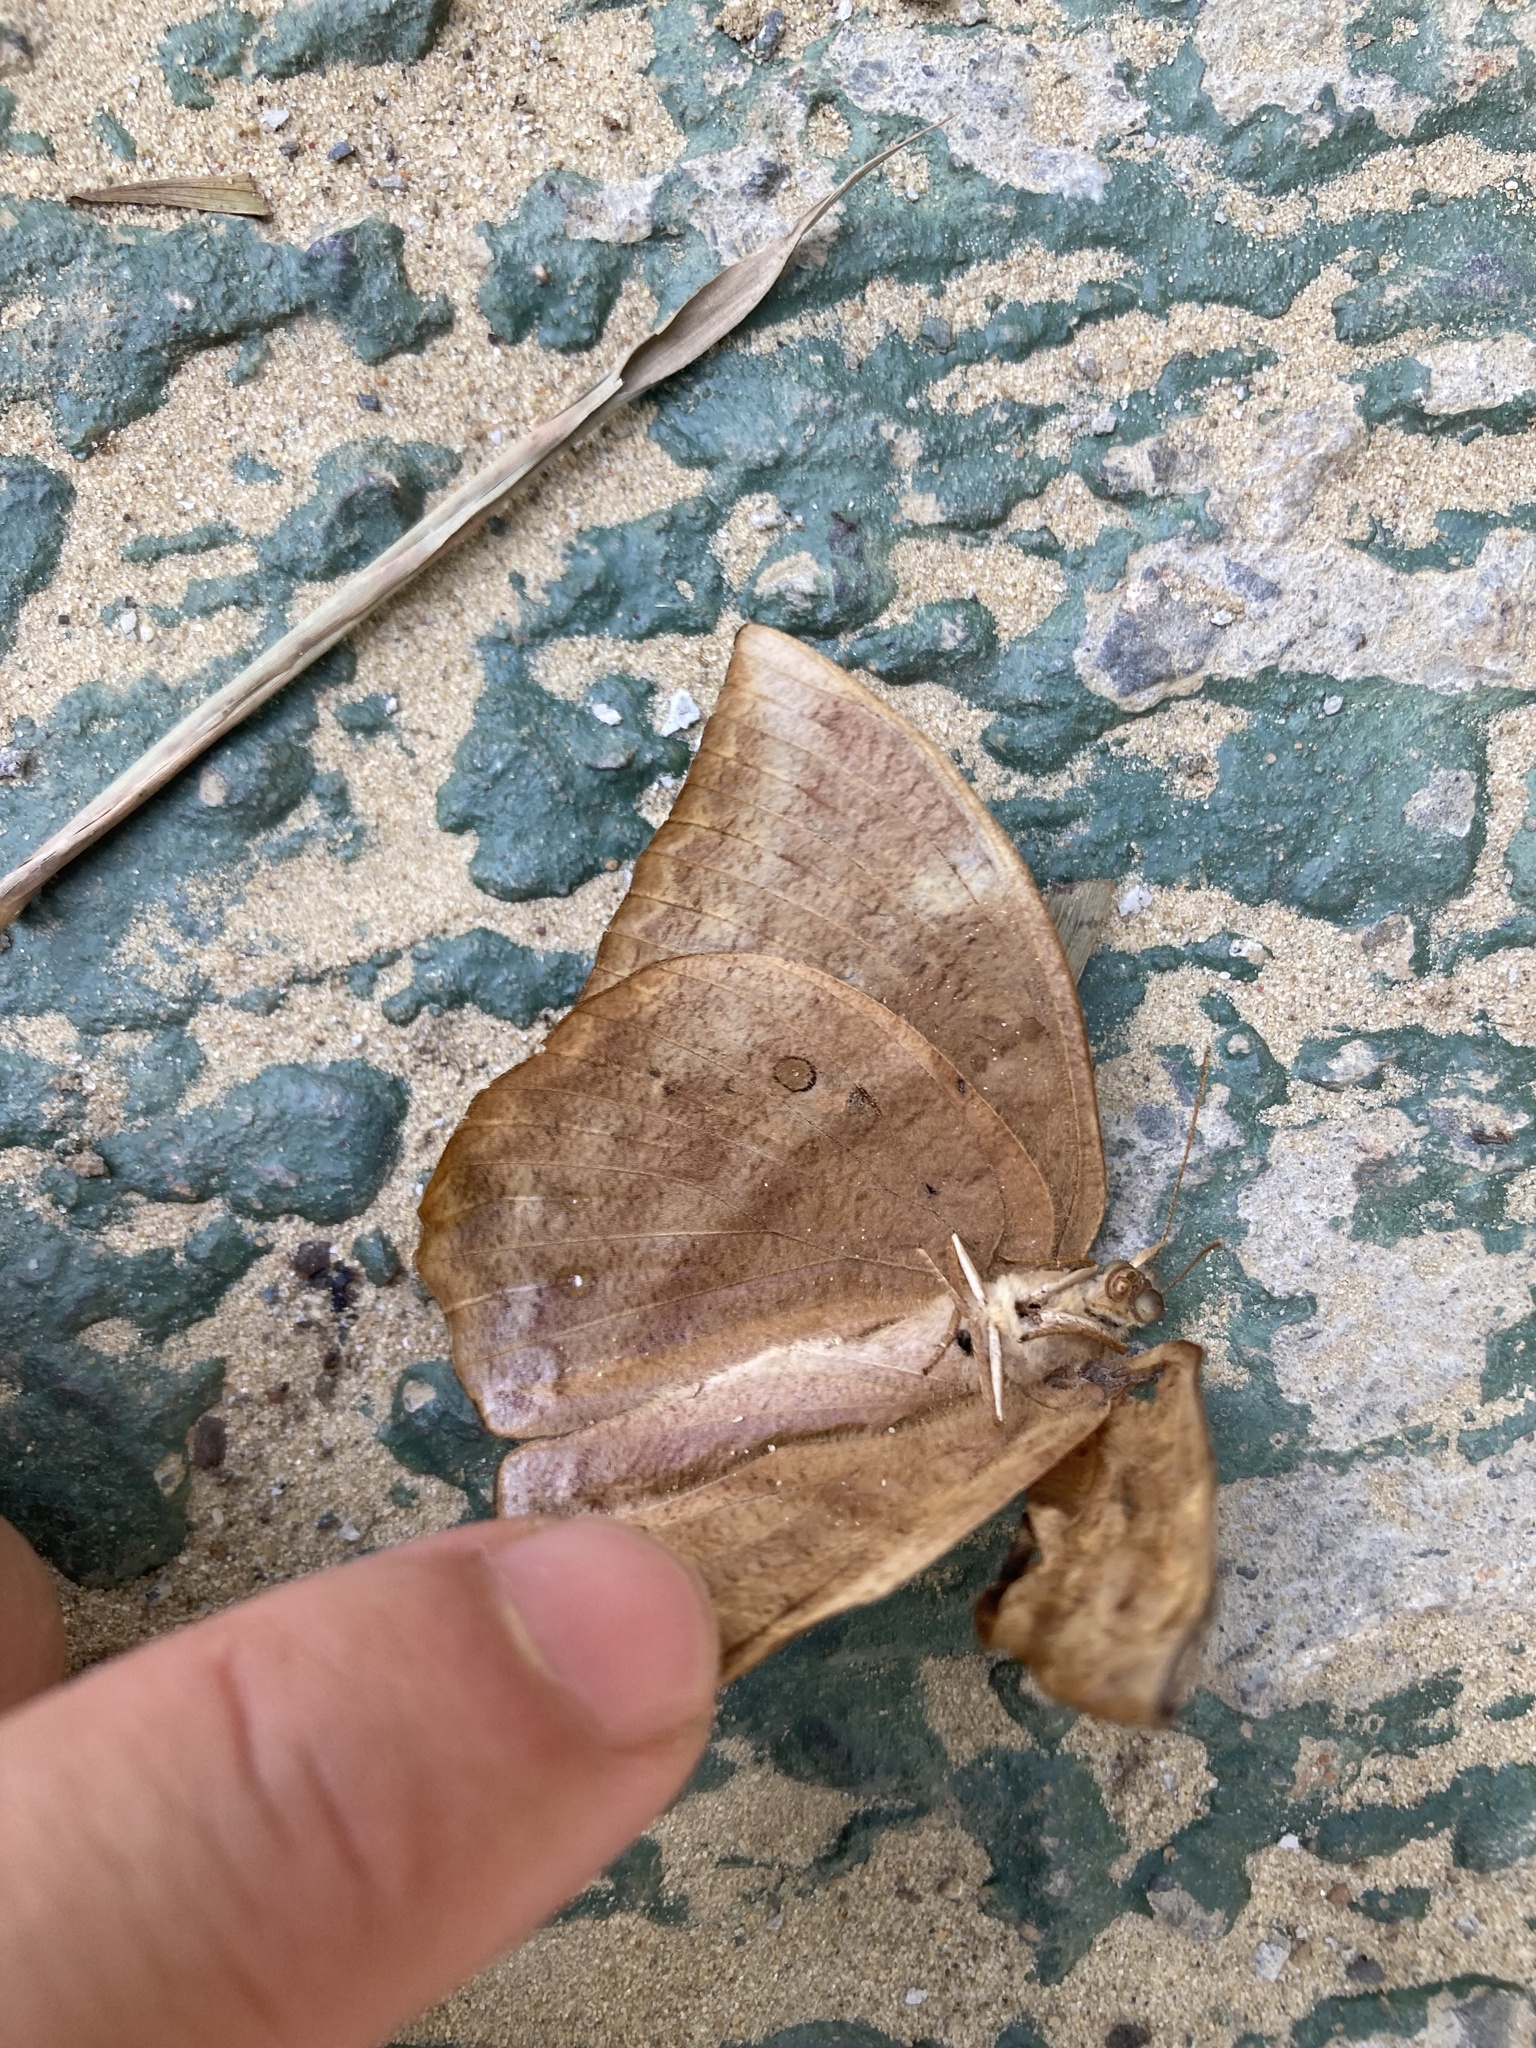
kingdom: Animalia
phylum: Arthropoda
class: Insecta
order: Lepidoptera
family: Nymphalidae
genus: Discophora
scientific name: Discophora sondaica
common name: Common duffer
